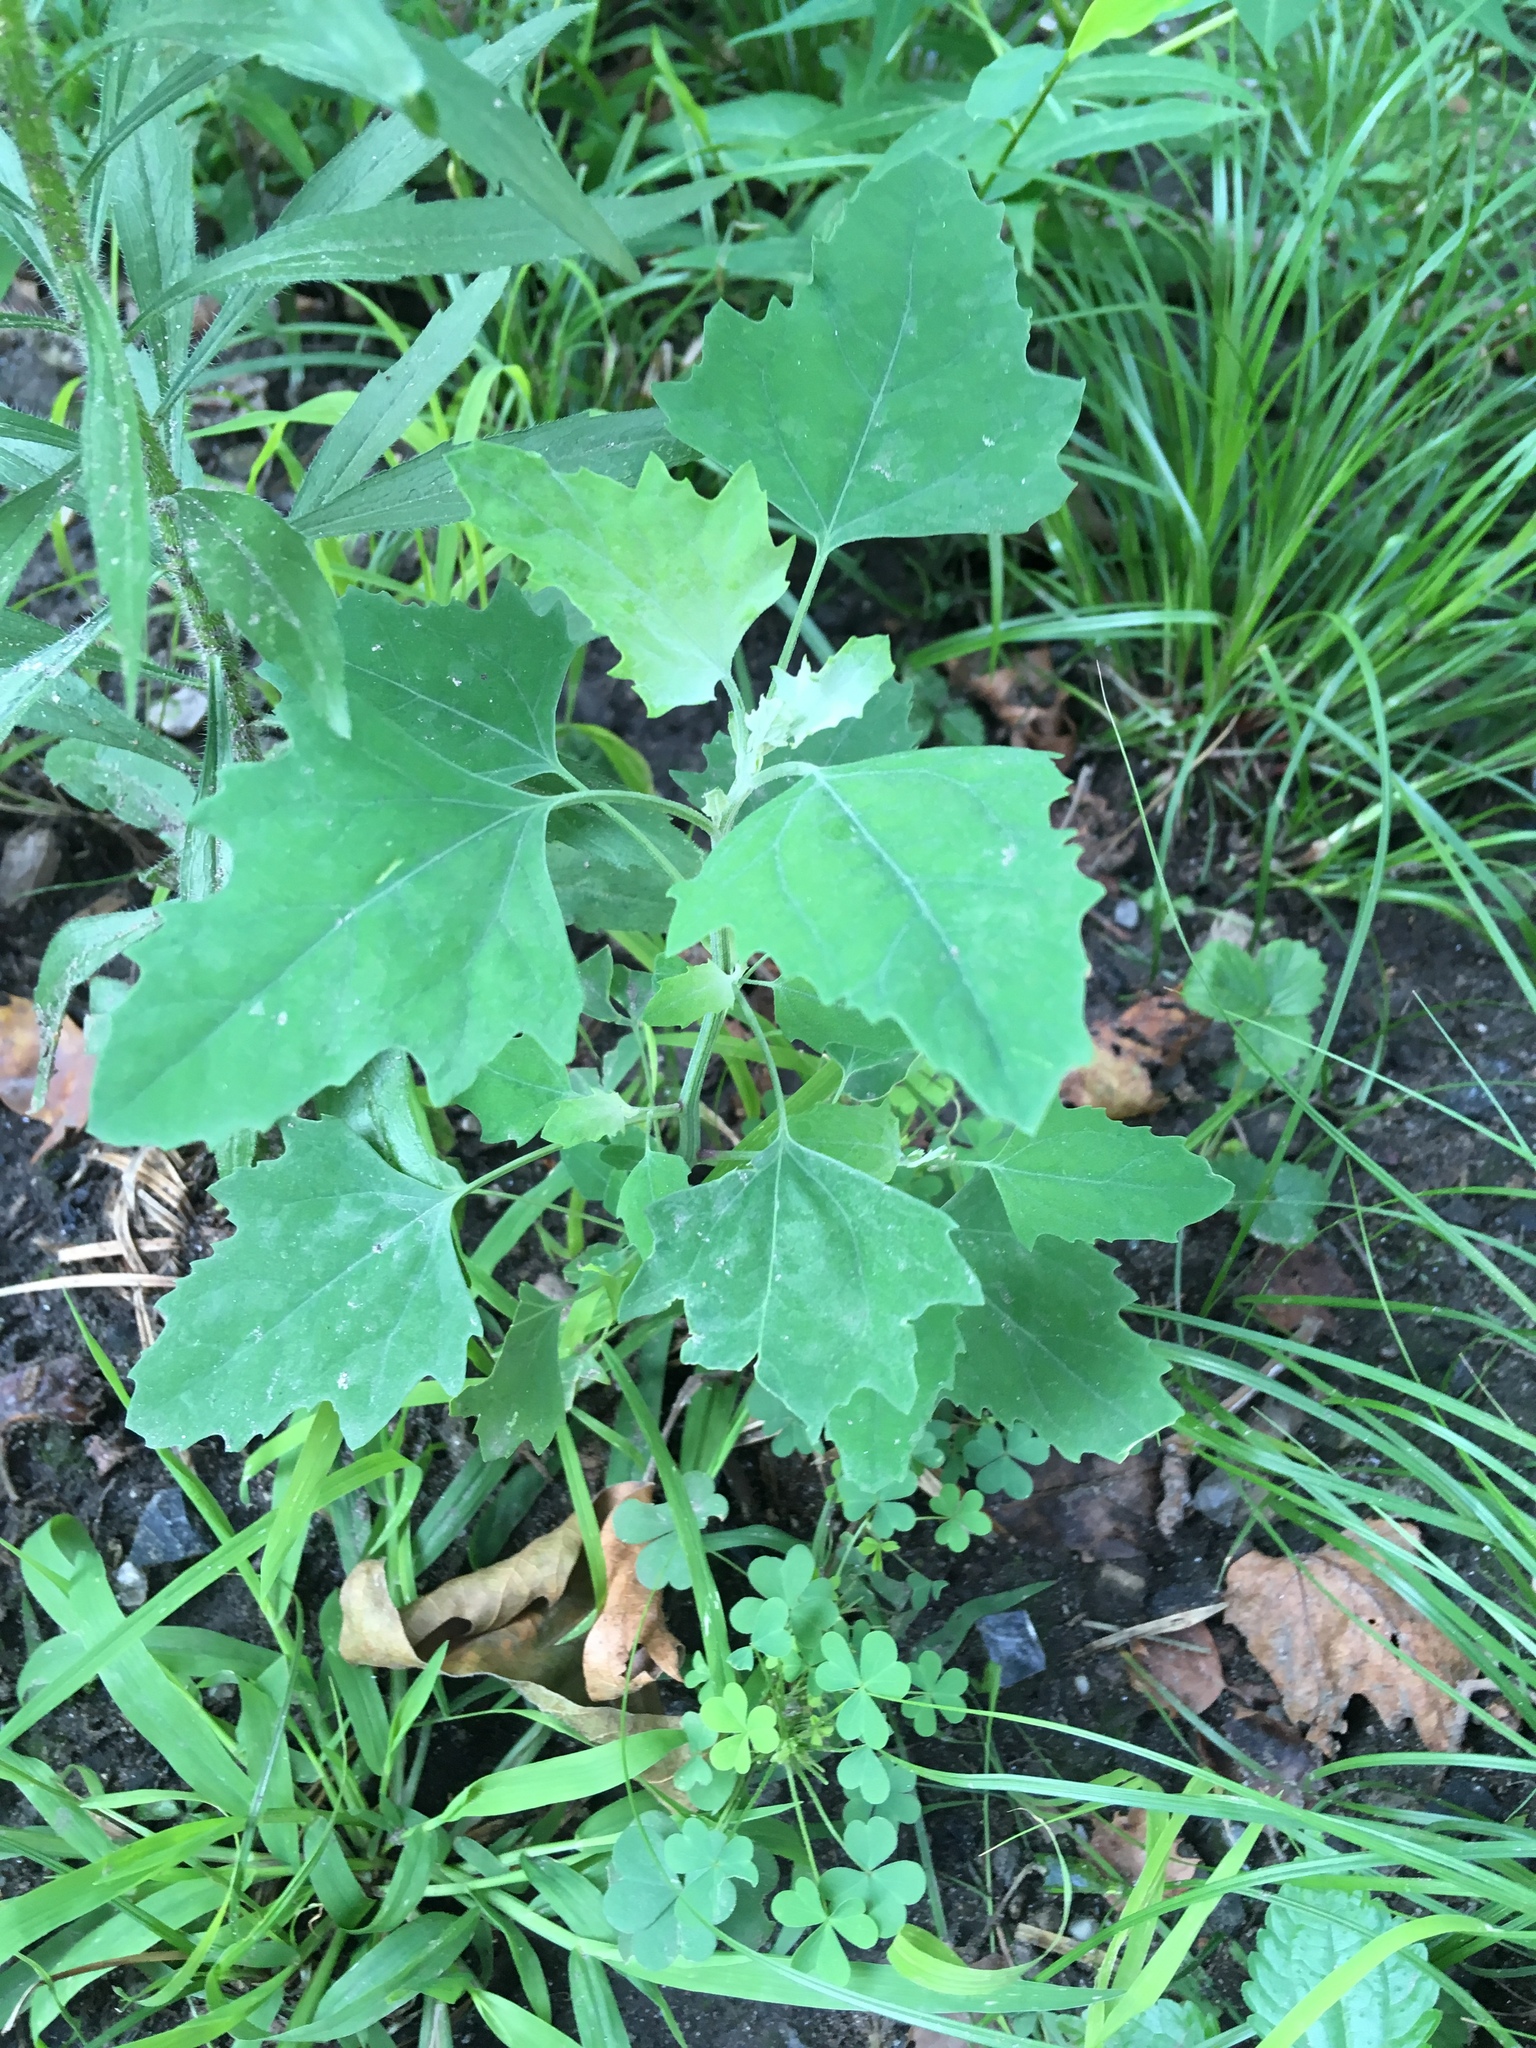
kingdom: Plantae
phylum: Tracheophyta
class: Magnoliopsida
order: Caryophyllales
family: Amaranthaceae
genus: Chenopodium
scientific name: Chenopodium album
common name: Fat-hen
